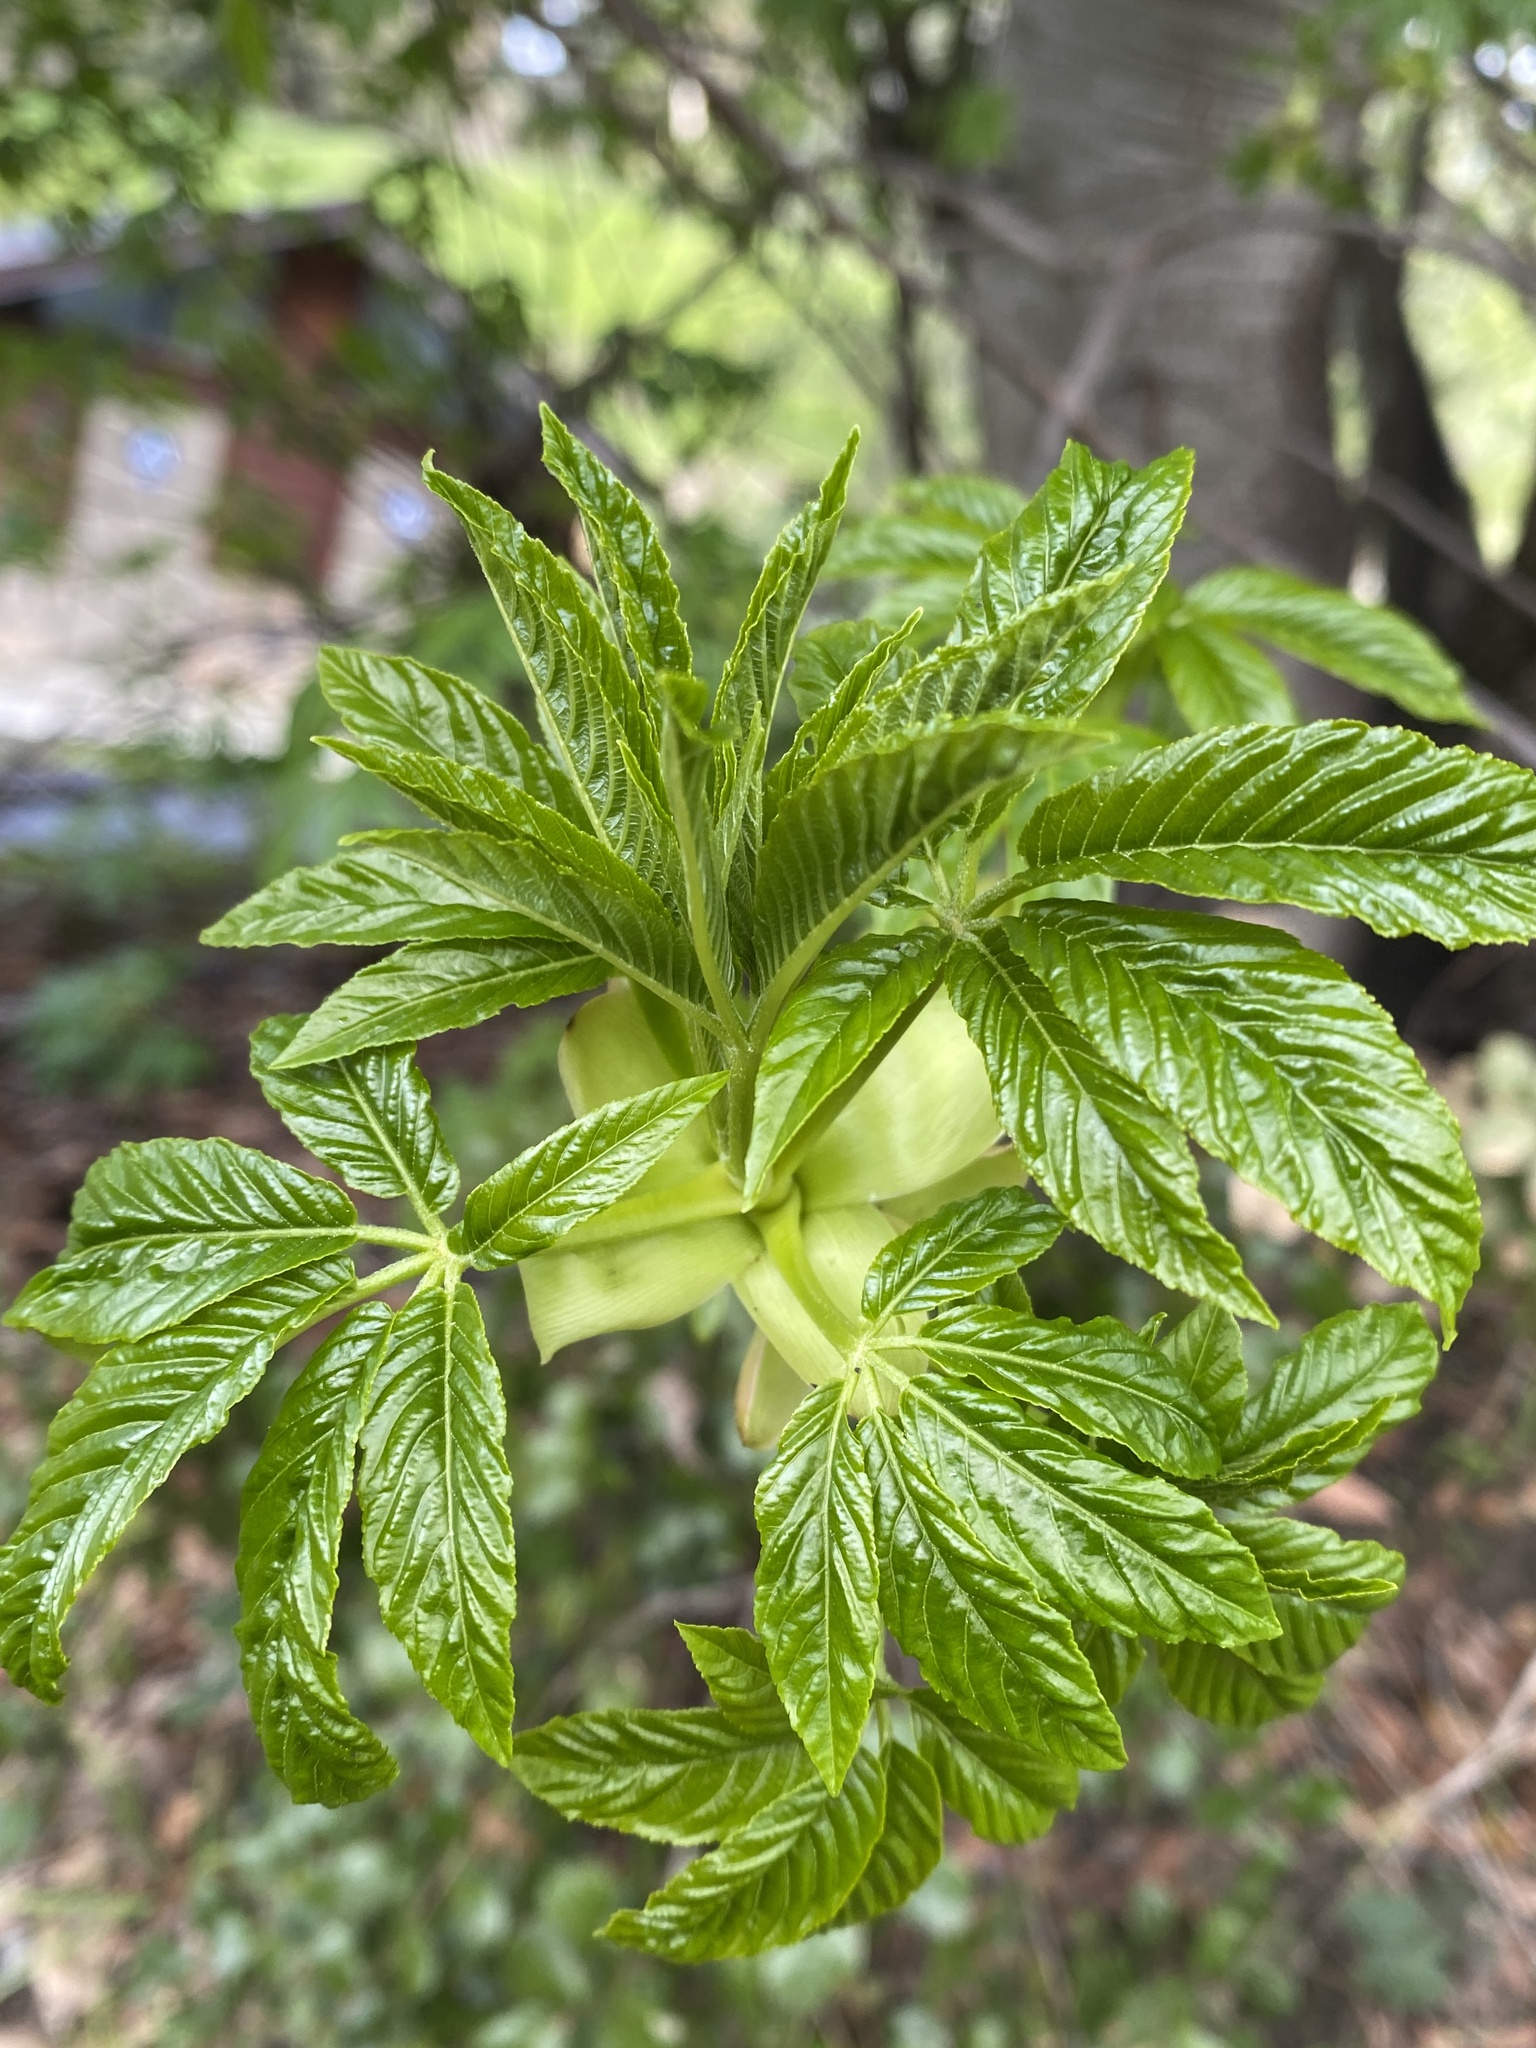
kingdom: Plantae
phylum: Tracheophyta
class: Magnoliopsida
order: Sapindales
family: Sapindaceae
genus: Aesculus
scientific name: Aesculus californica
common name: California buckeye
